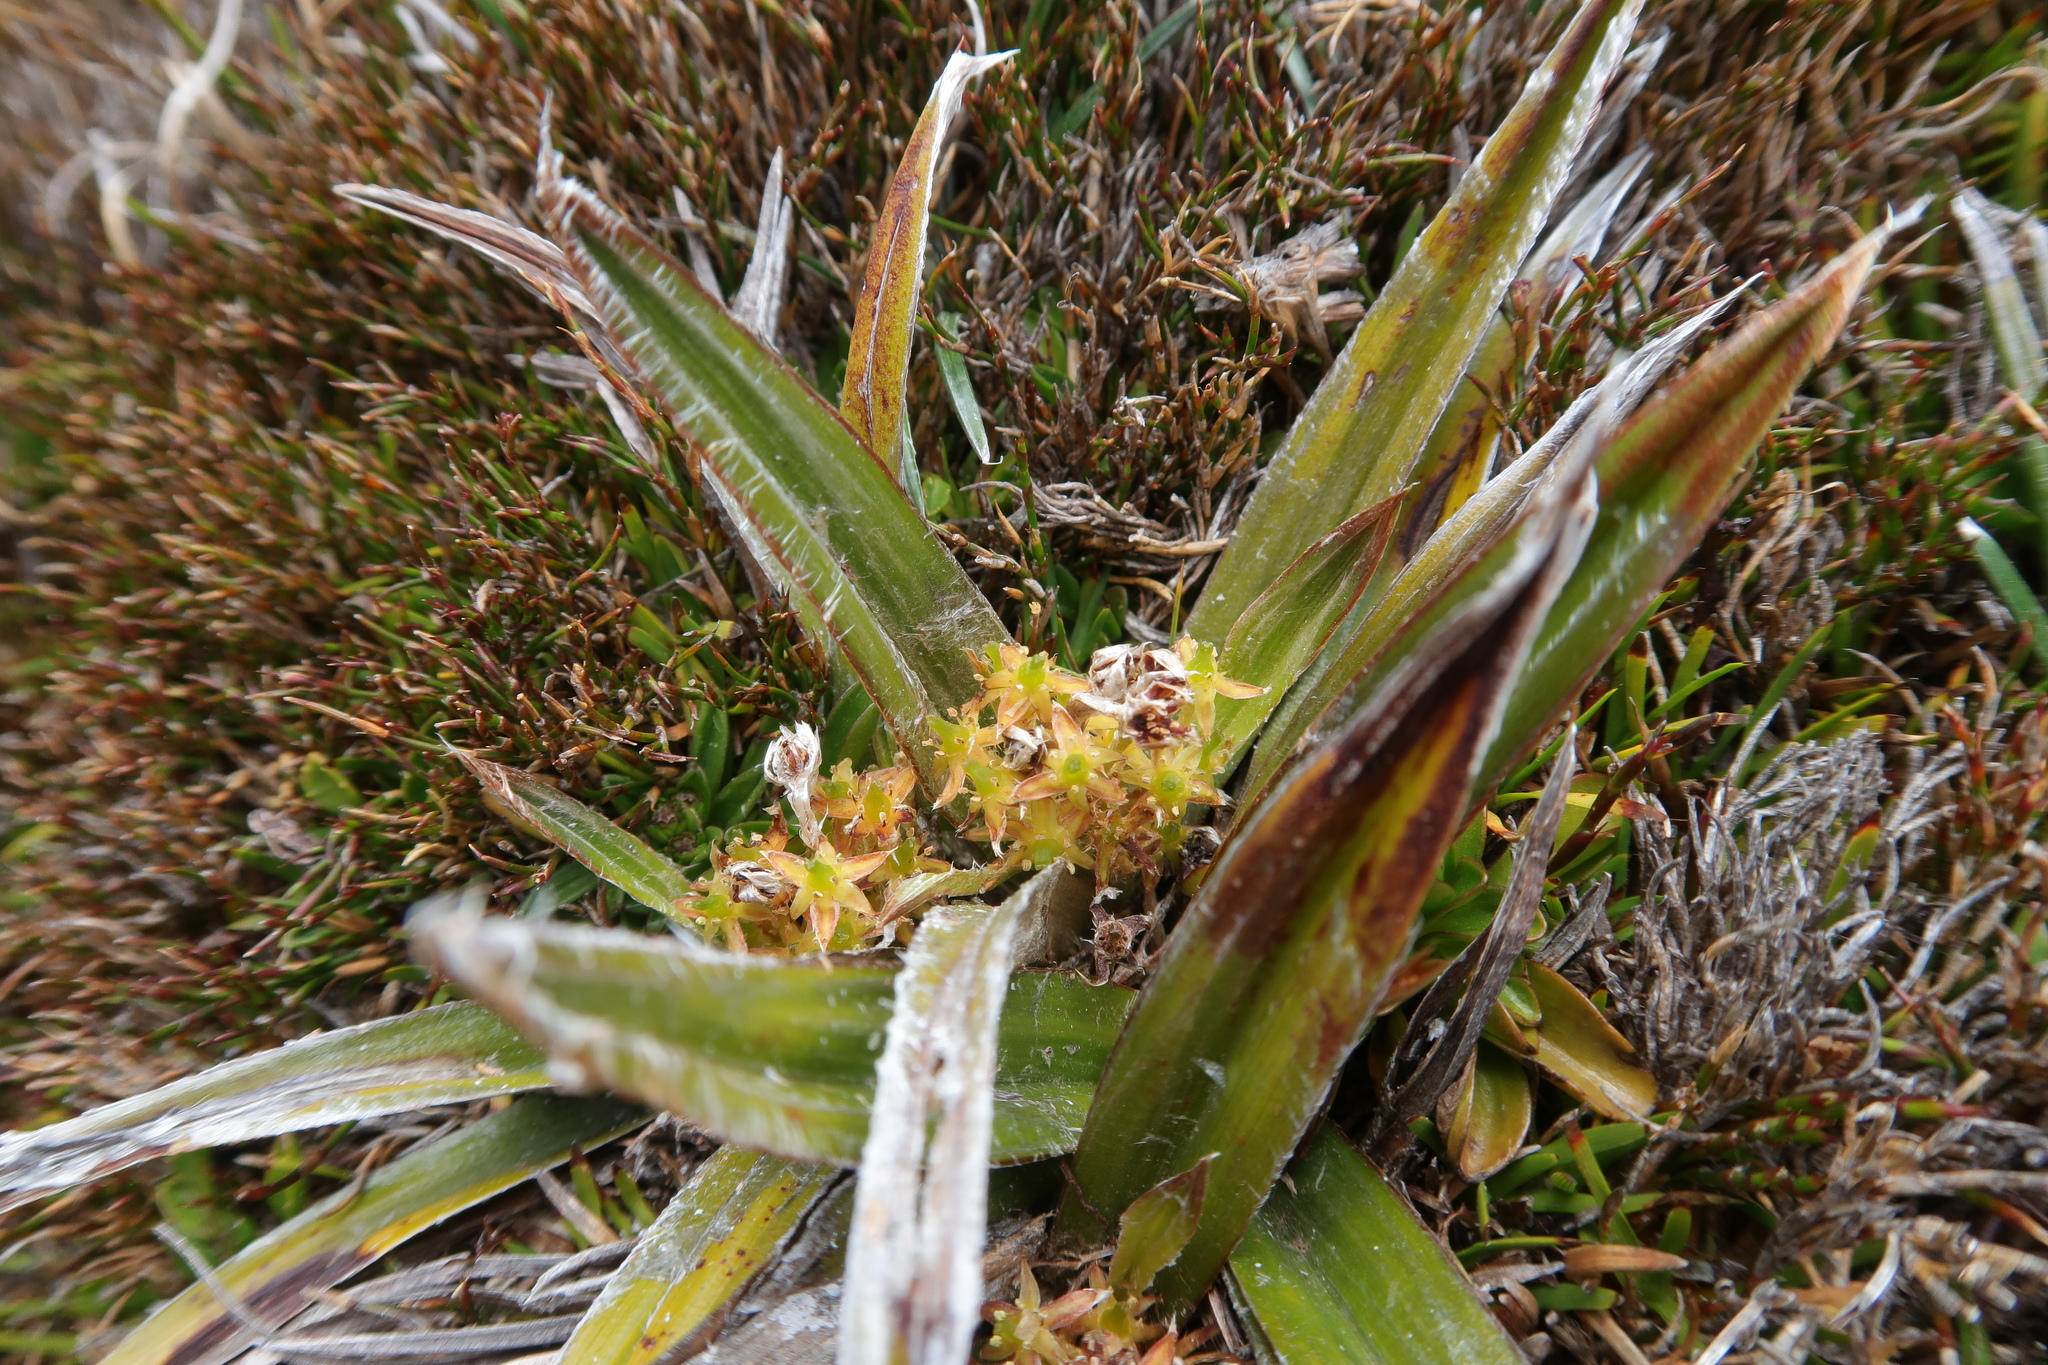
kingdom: Plantae
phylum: Tracheophyta
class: Liliopsida
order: Asparagales
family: Asteliaceae
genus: Astelia
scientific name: Astelia alpina
